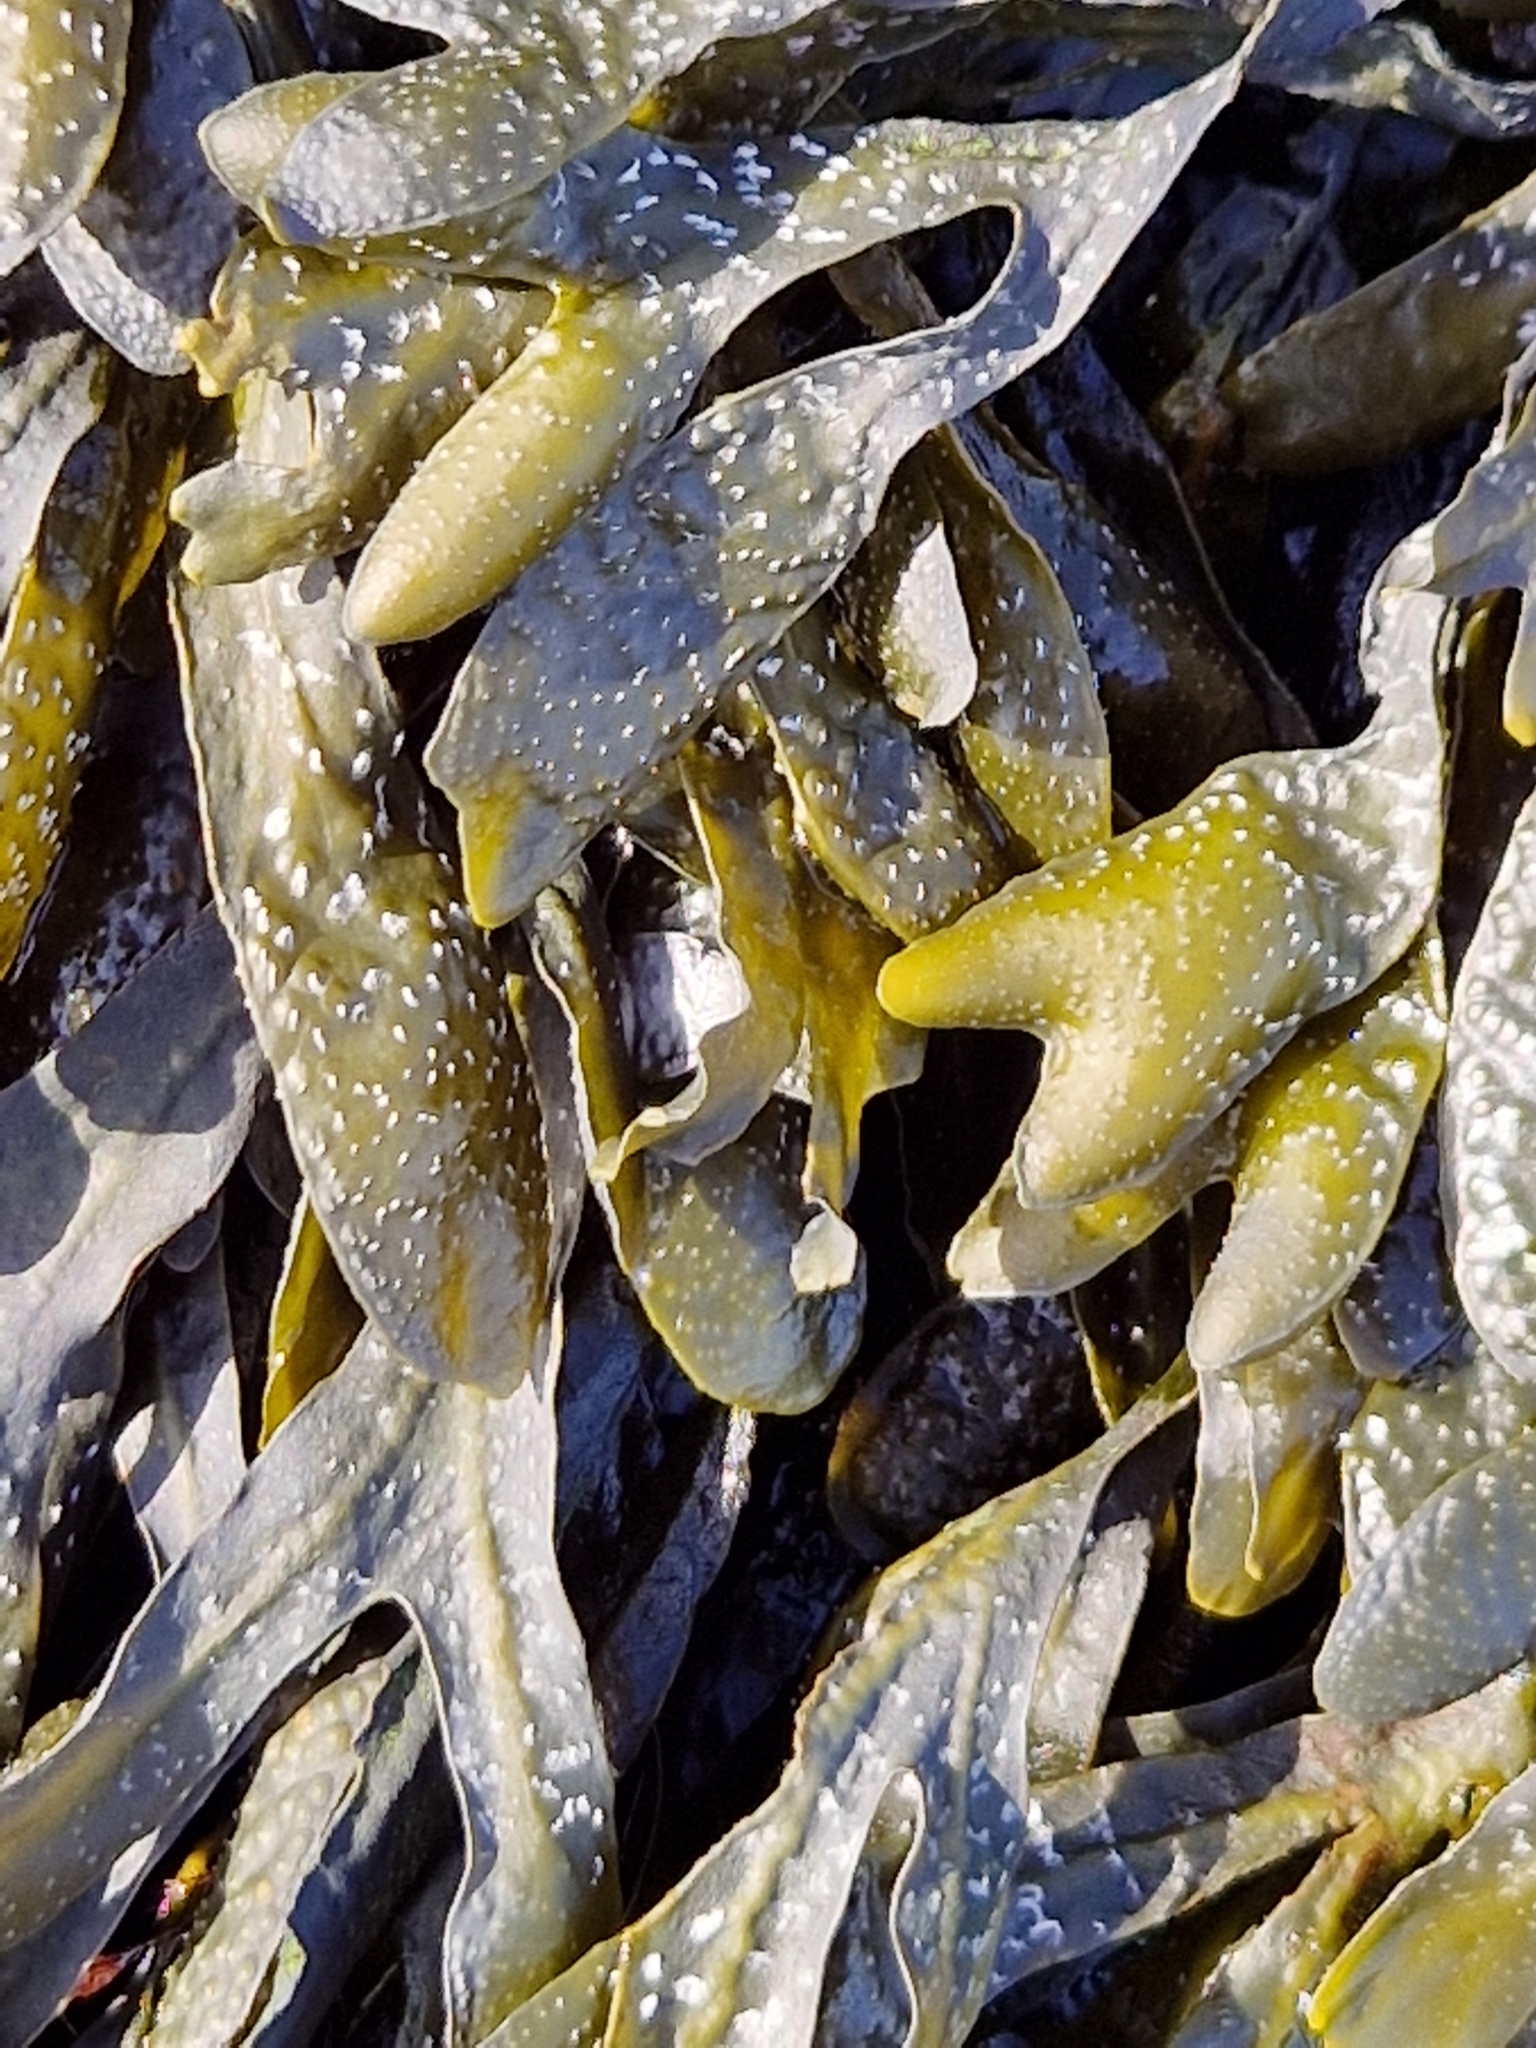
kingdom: Chromista
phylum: Ochrophyta
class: Phaeophyceae
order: Fucales
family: Fucaceae
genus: Fucus
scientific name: Fucus spiralis
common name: Spiral wrack
